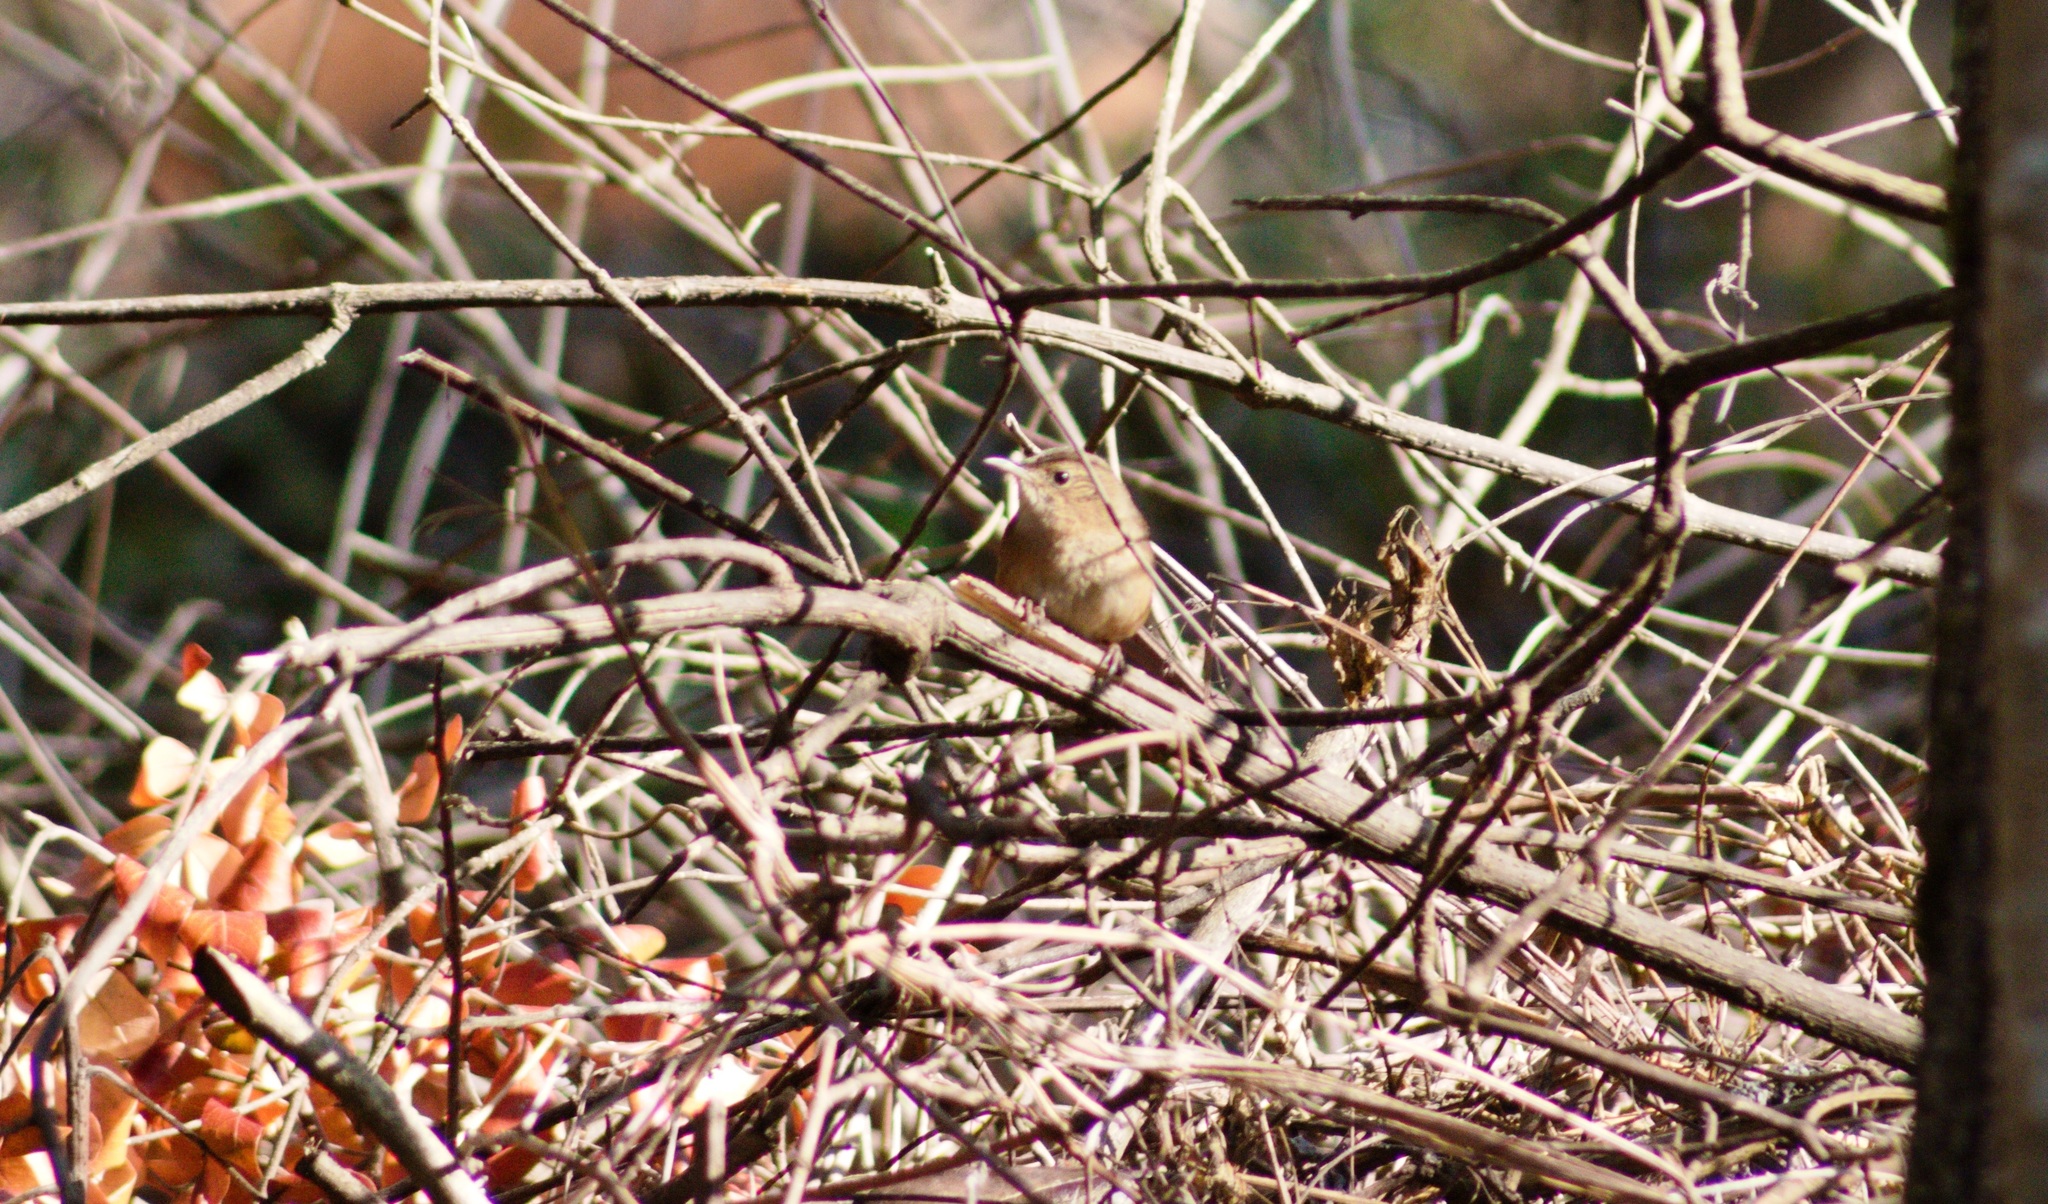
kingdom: Animalia
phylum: Chordata
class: Aves
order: Passeriformes
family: Troglodytidae
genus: Troglodytes
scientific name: Troglodytes aedon
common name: House wren
